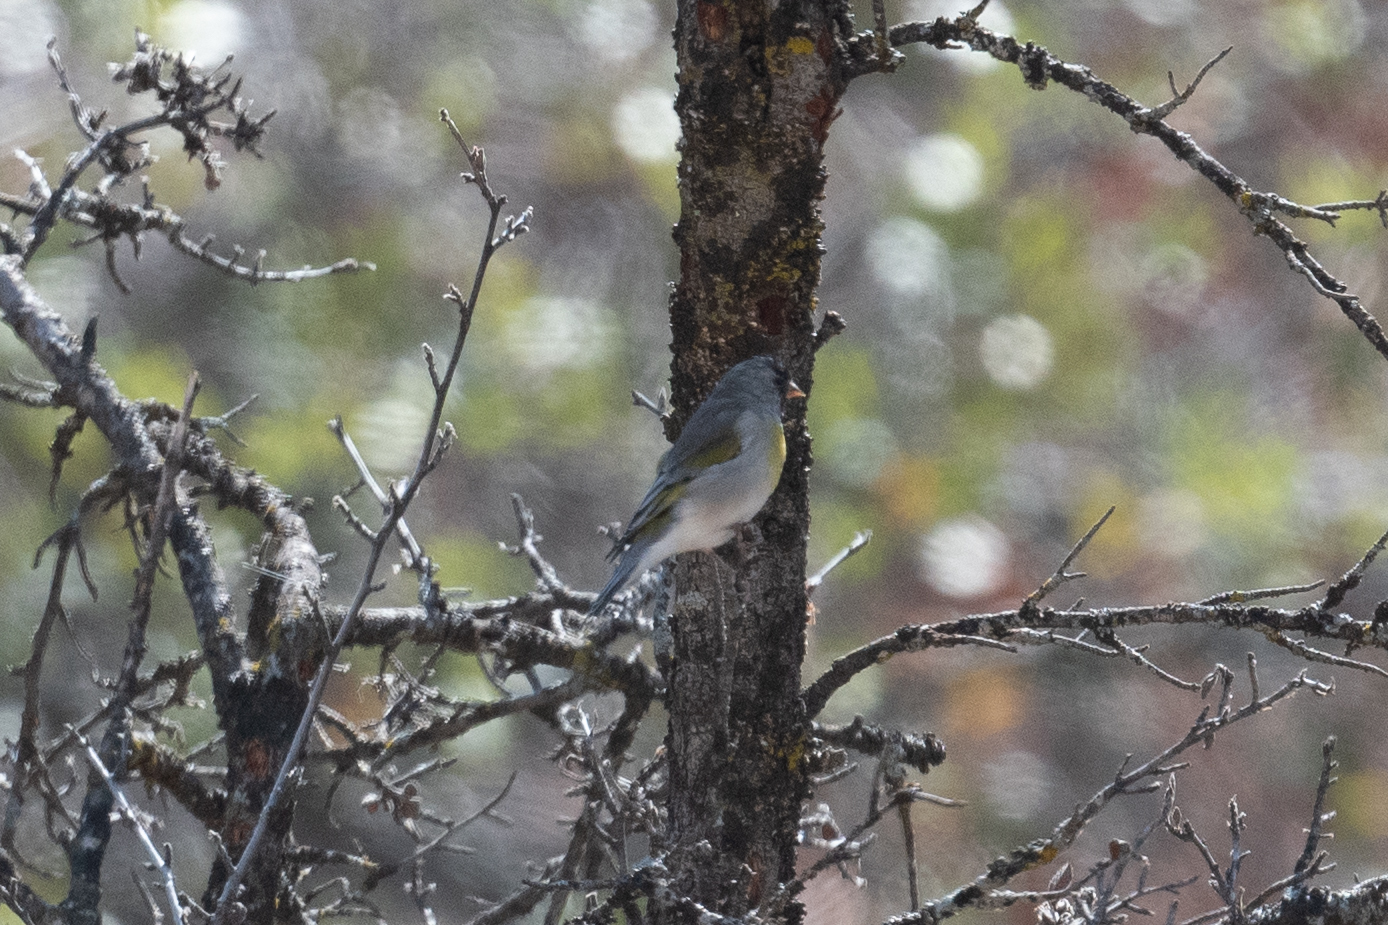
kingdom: Animalia
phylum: Chordata
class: Aves
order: Passeriformes
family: Fringillidae
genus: Spinus
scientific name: Spinus lawrencei
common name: Lawrence's goldfinch
